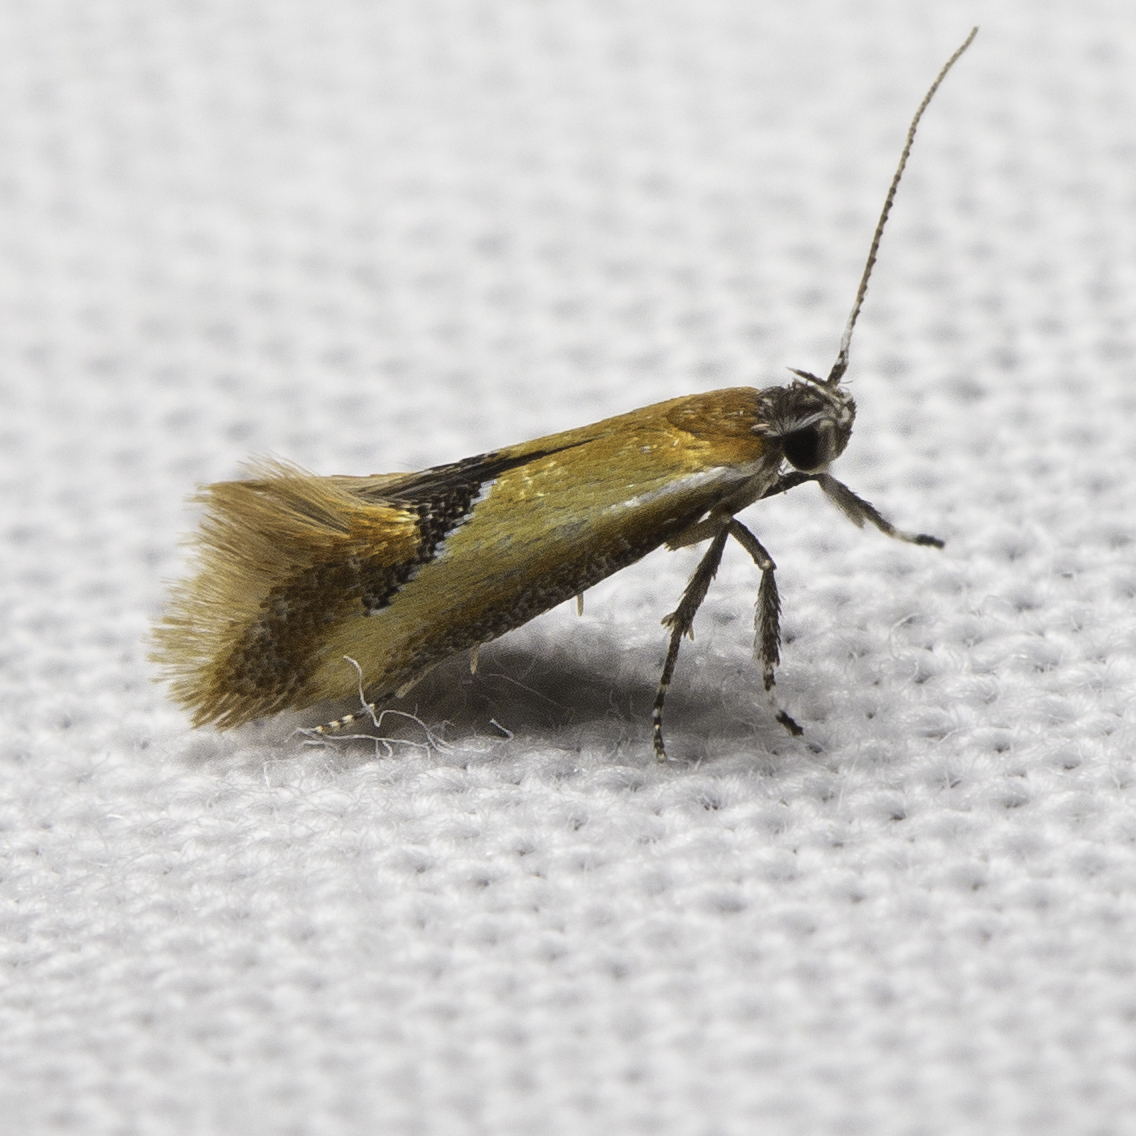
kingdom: Animalia
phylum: Arthropoda
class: Insecta
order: Lepidoptera
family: Oecophoridae
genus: Batia
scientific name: Batia lunaris
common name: Moth
